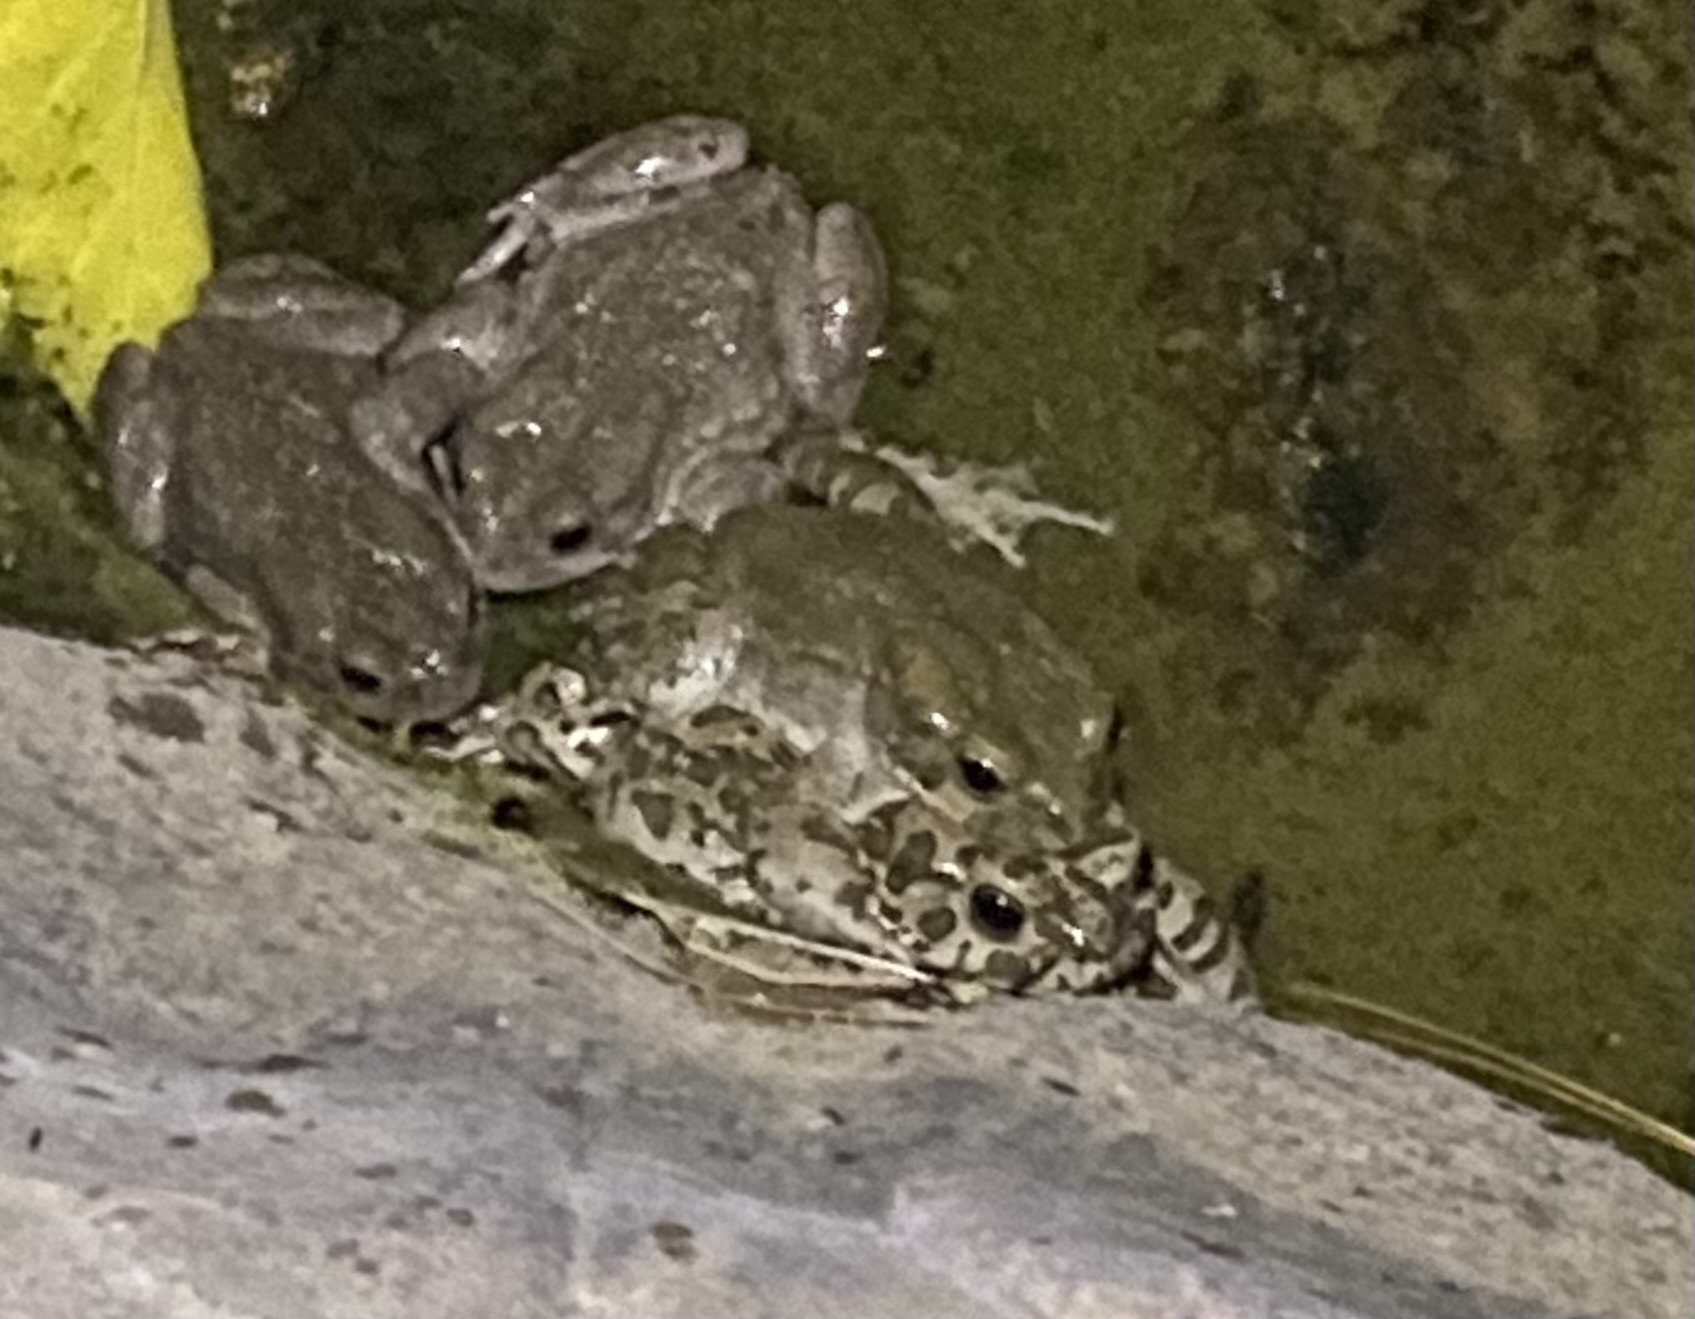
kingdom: Animalia
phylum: Chordata
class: Amphibia
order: Anura
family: Bufonidae
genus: Bufotes
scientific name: Bufotes viridis
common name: European green toad
